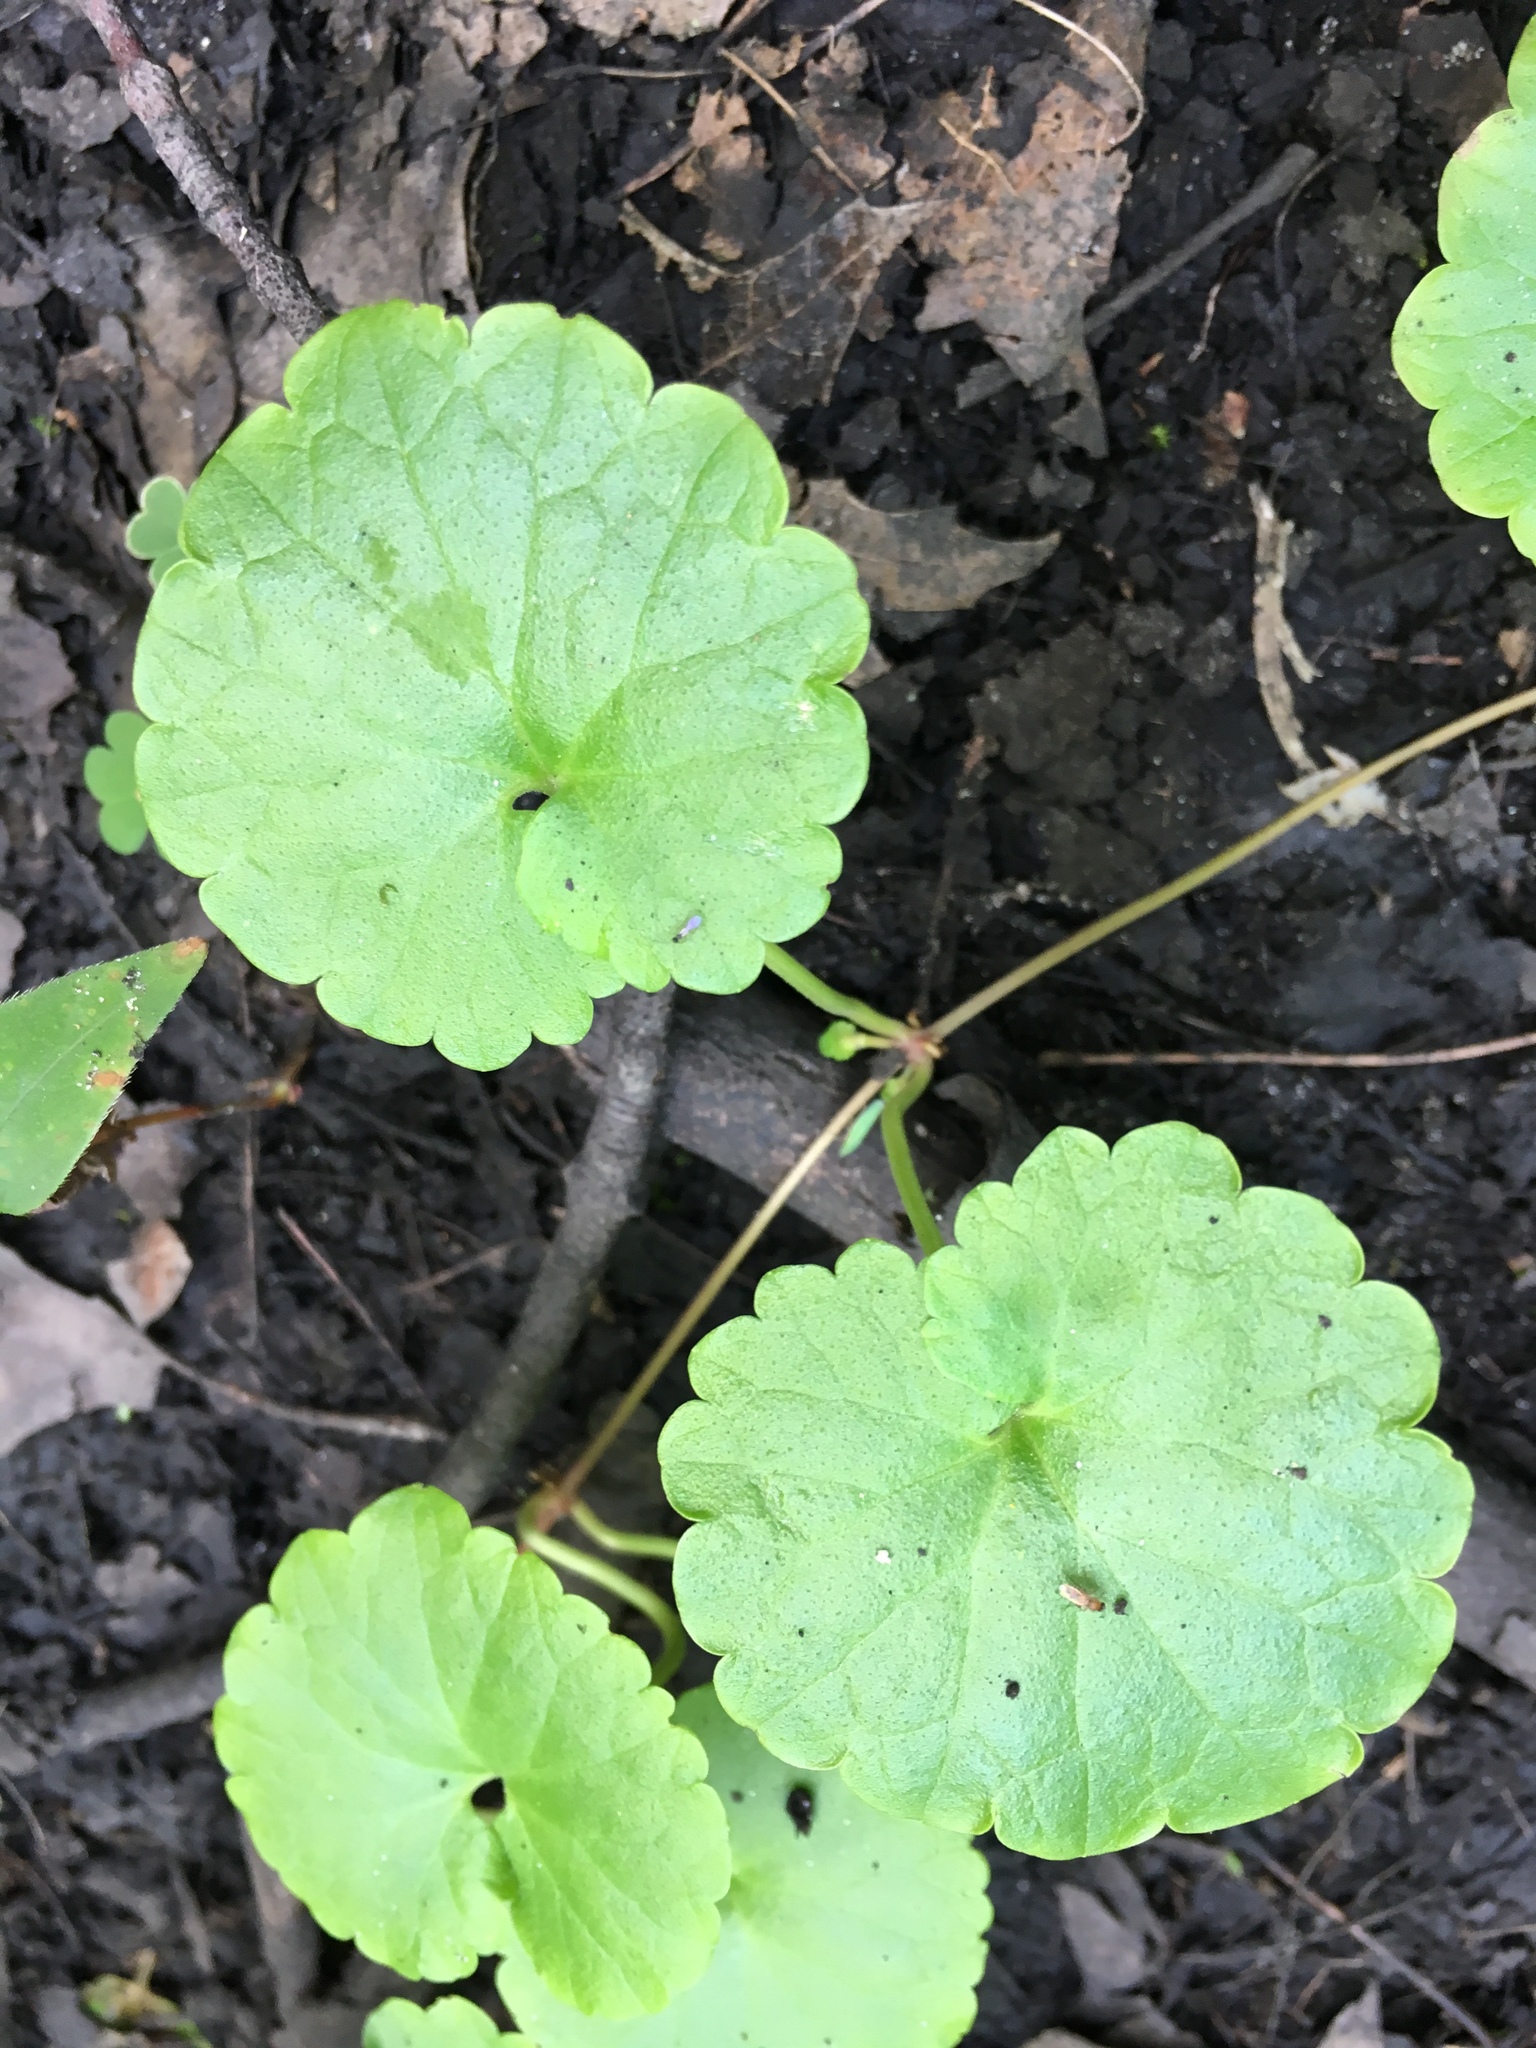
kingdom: Plantae
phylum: Tracheophyta
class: Magnoliopsida
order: Lamiales
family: Lamiaceae
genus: Glechoma
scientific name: Glechoma hederacea
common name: Ground ivy
